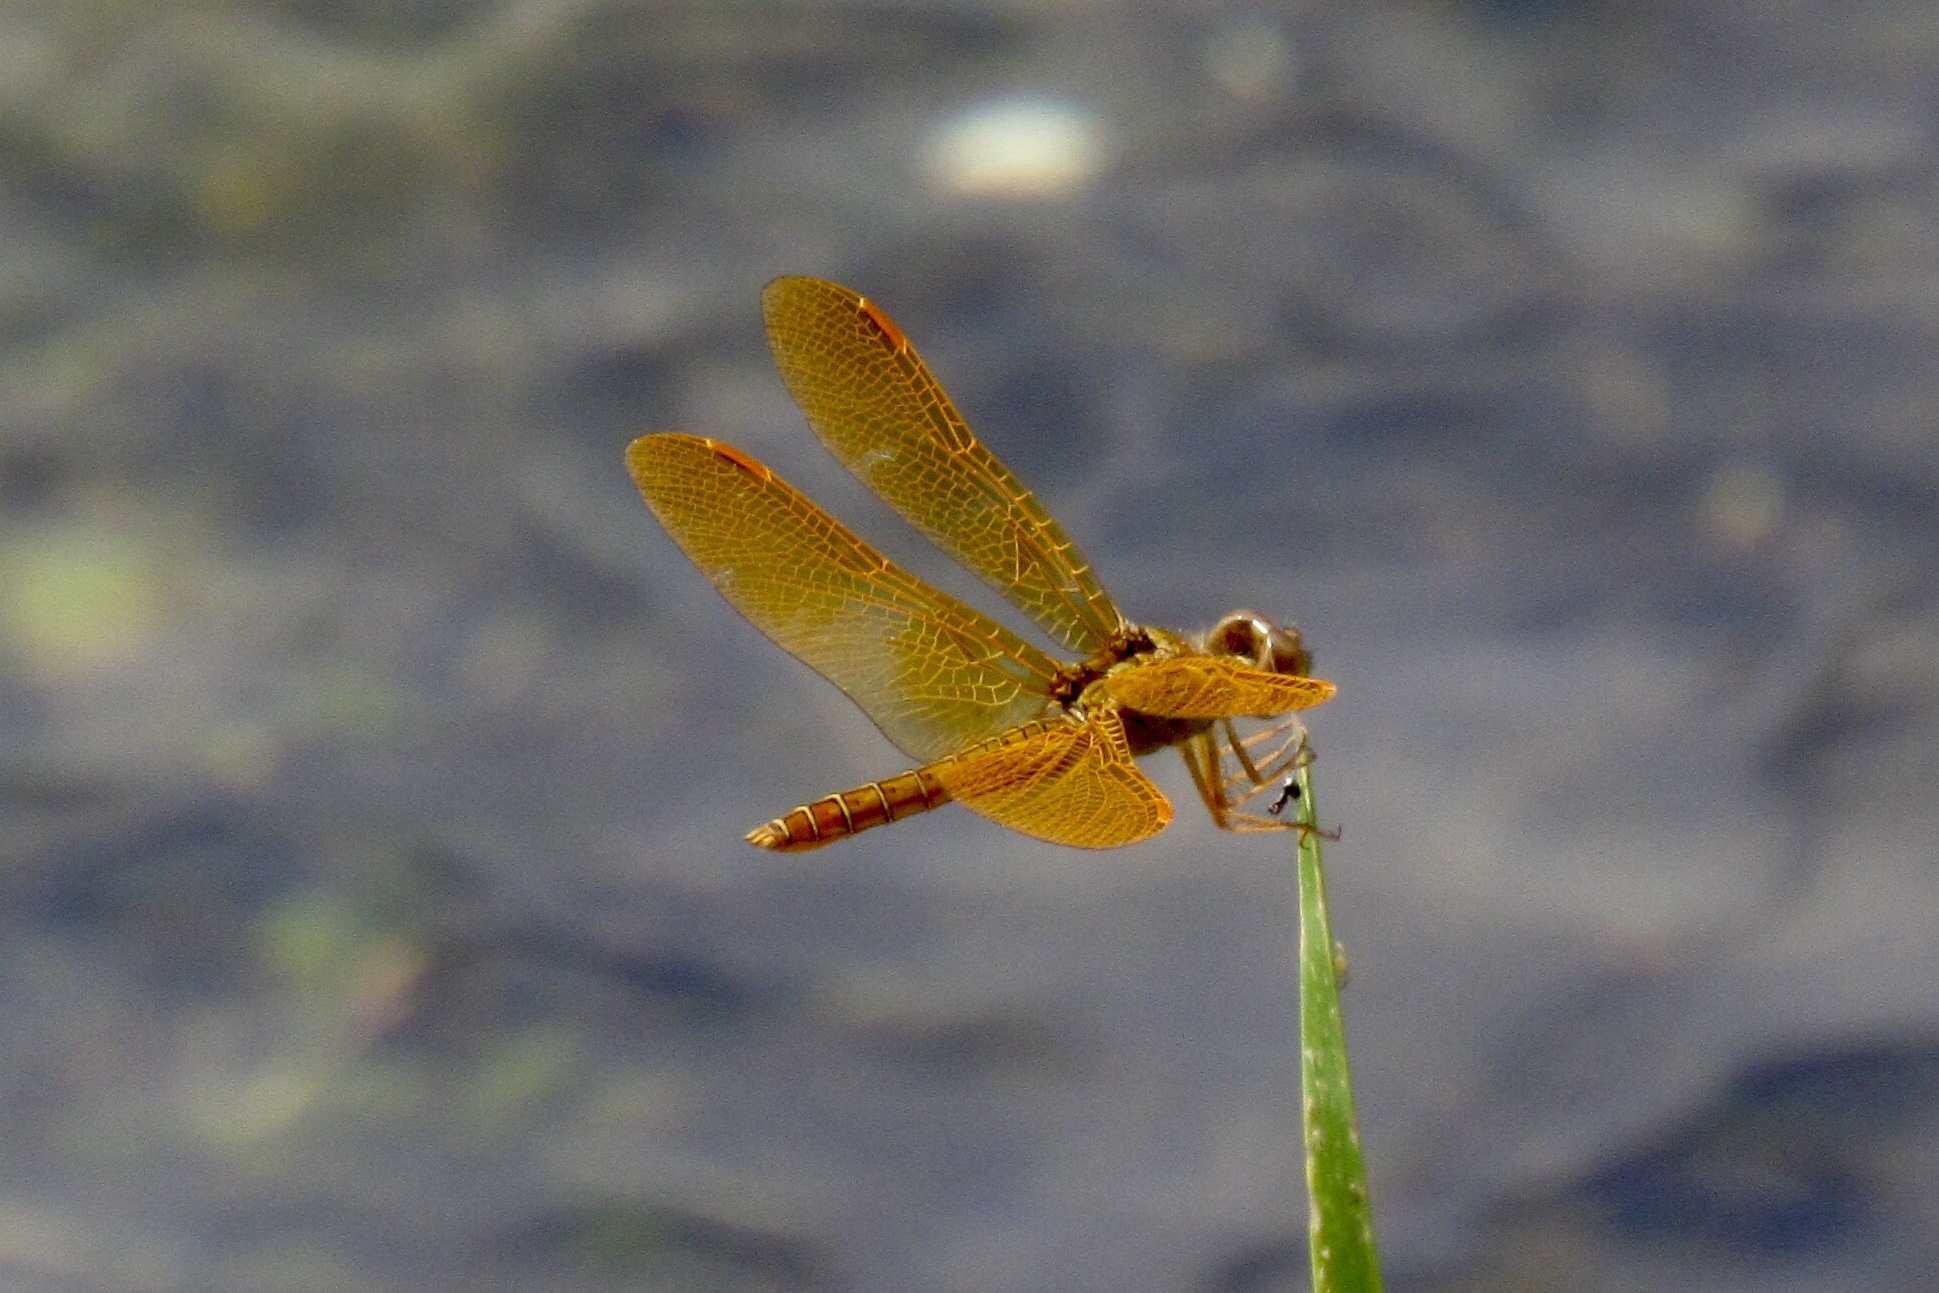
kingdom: Animalia
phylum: Arthropoda
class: Insecta
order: Odonata
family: Libellulidae
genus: Perithemis
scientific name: Perithemis intensa
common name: Mexican amberwing
